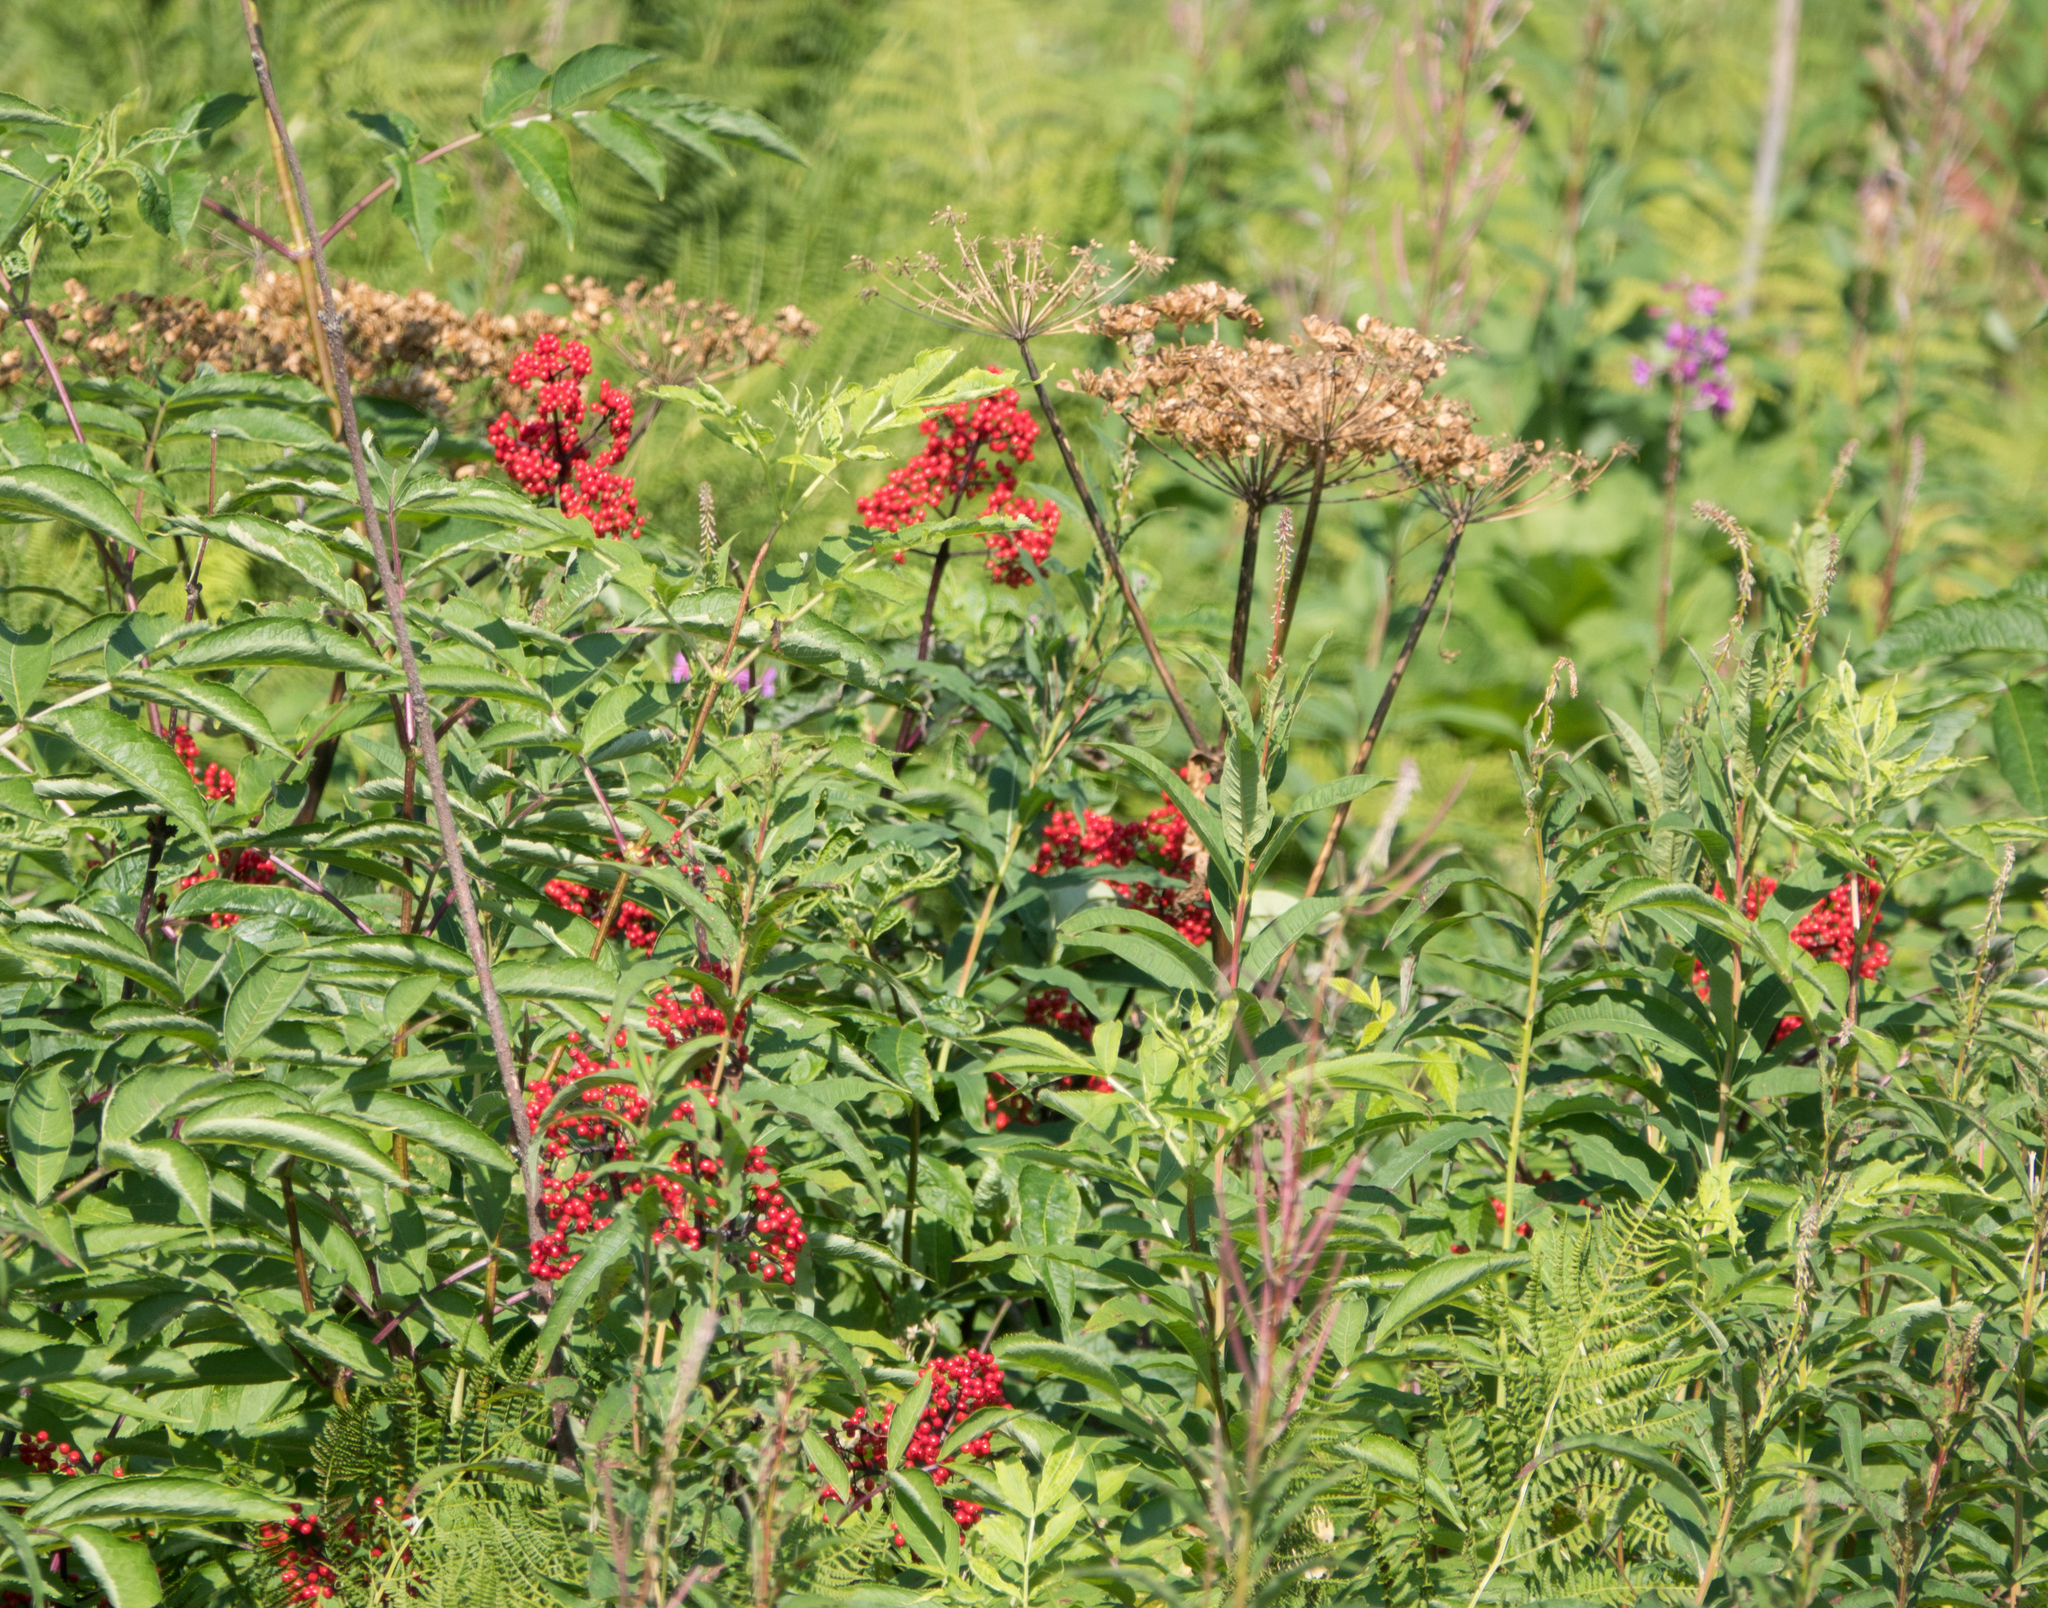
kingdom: Plantae
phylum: Tracheophyta
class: Magnoliopsida
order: Dipsacales
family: Viburnaceae
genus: Sambucus
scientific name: Sambucus racemosa
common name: Red-berried elder
